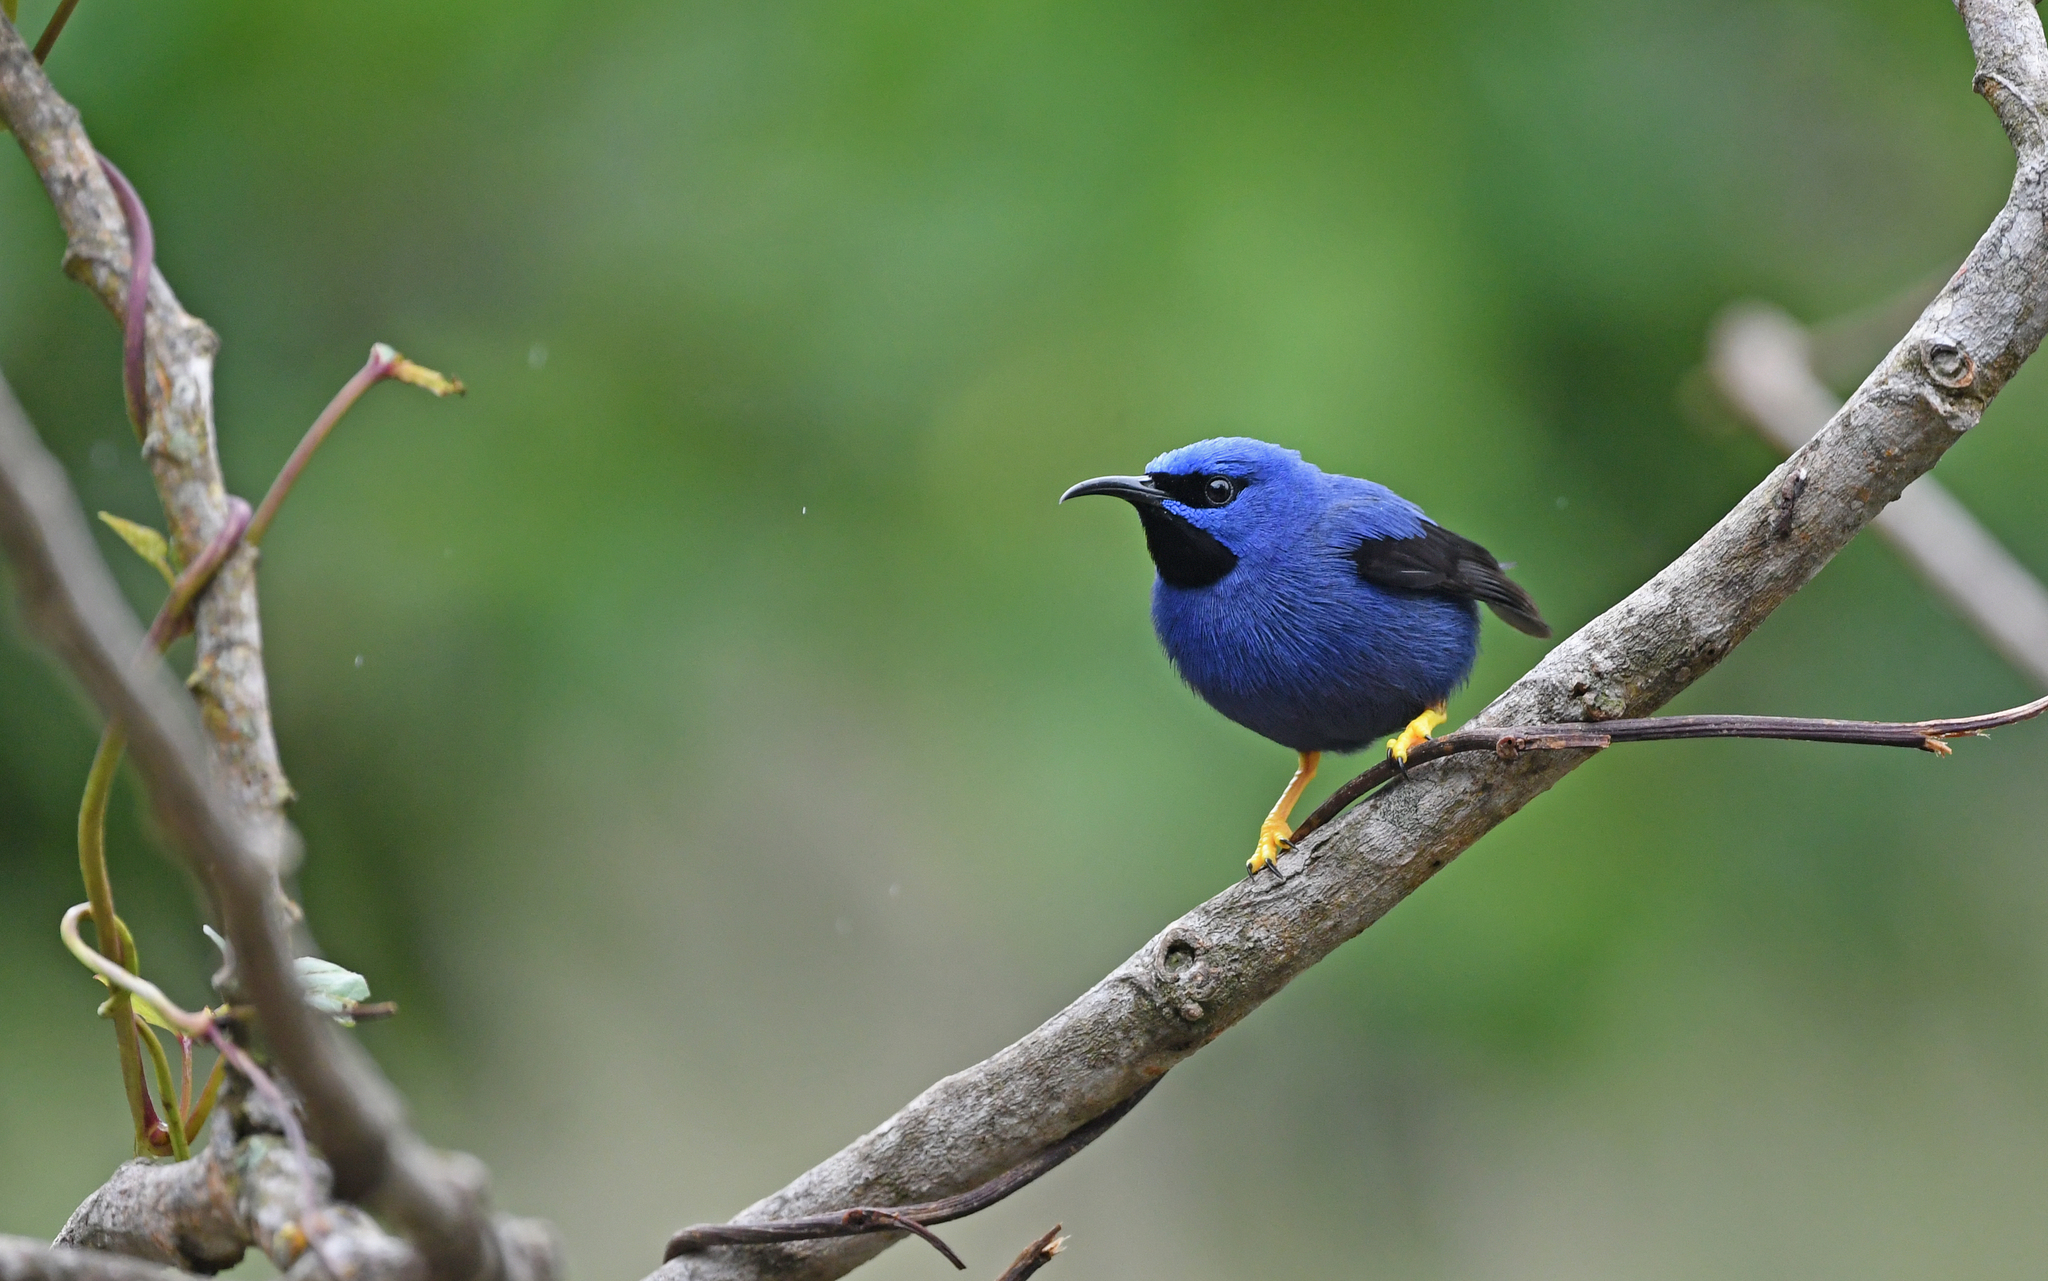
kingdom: Animalia
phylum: Chordata
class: Aves
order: Passeriformes
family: Thraupidae
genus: Cyanerpes
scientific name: Cyanerpes caeruleus
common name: Purple honeycreeper
